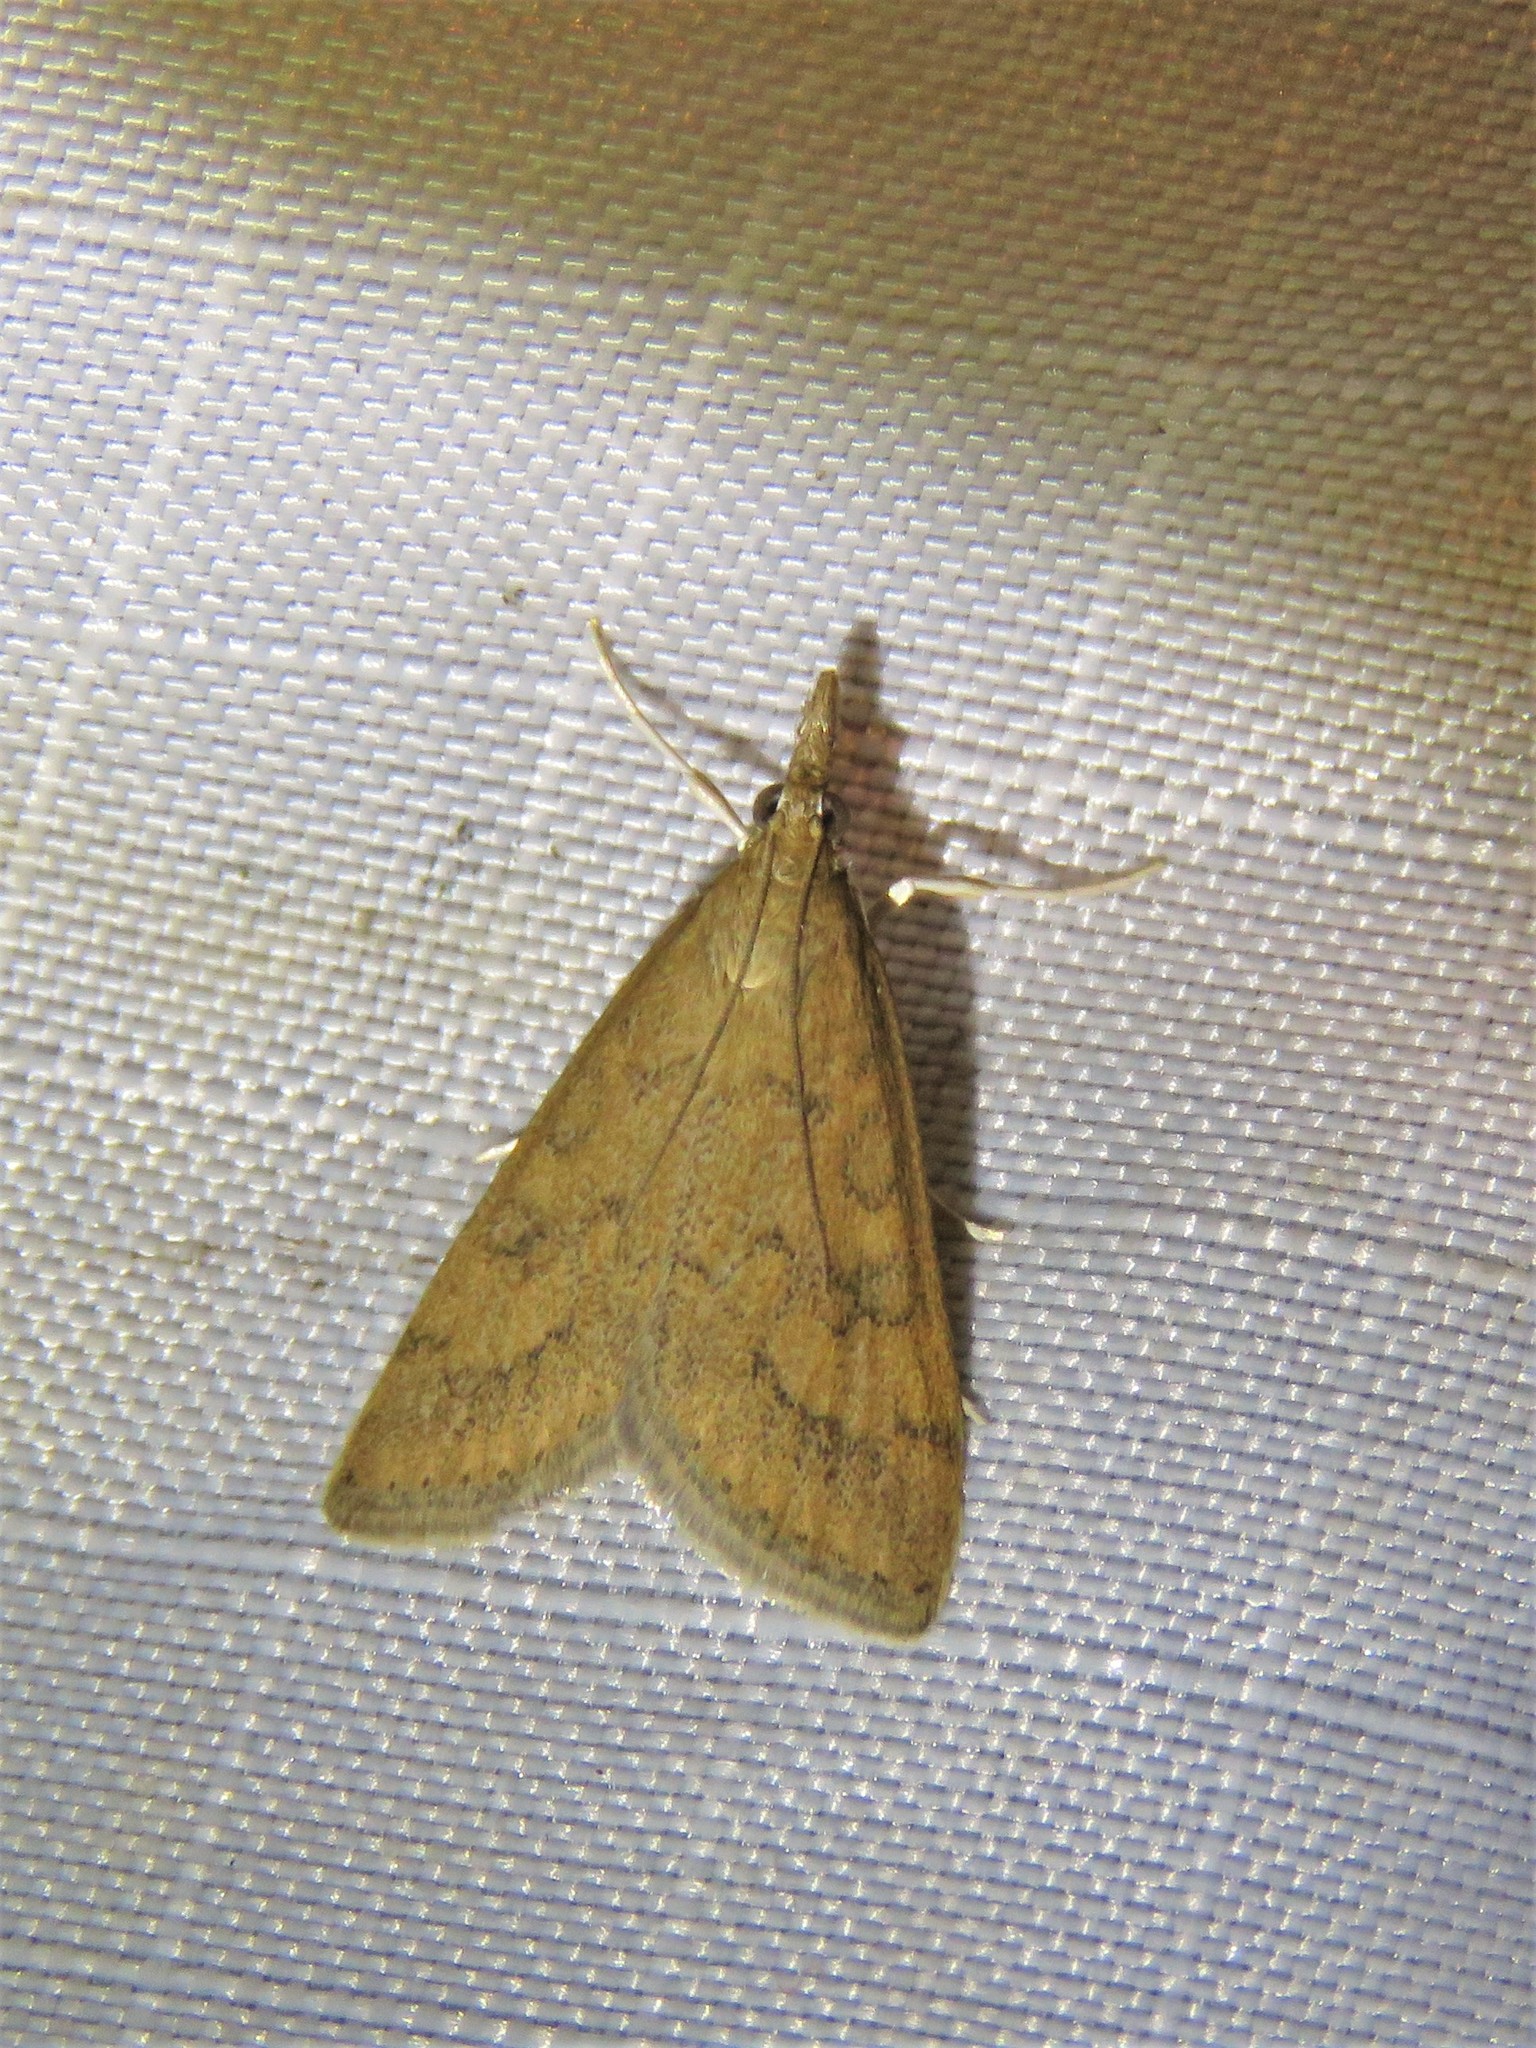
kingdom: Animalia
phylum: Arthropoda
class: Insecta
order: Lepidoptera
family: Crambidae
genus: Udea
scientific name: Udea rubigalis
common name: Celery leaftier moth
